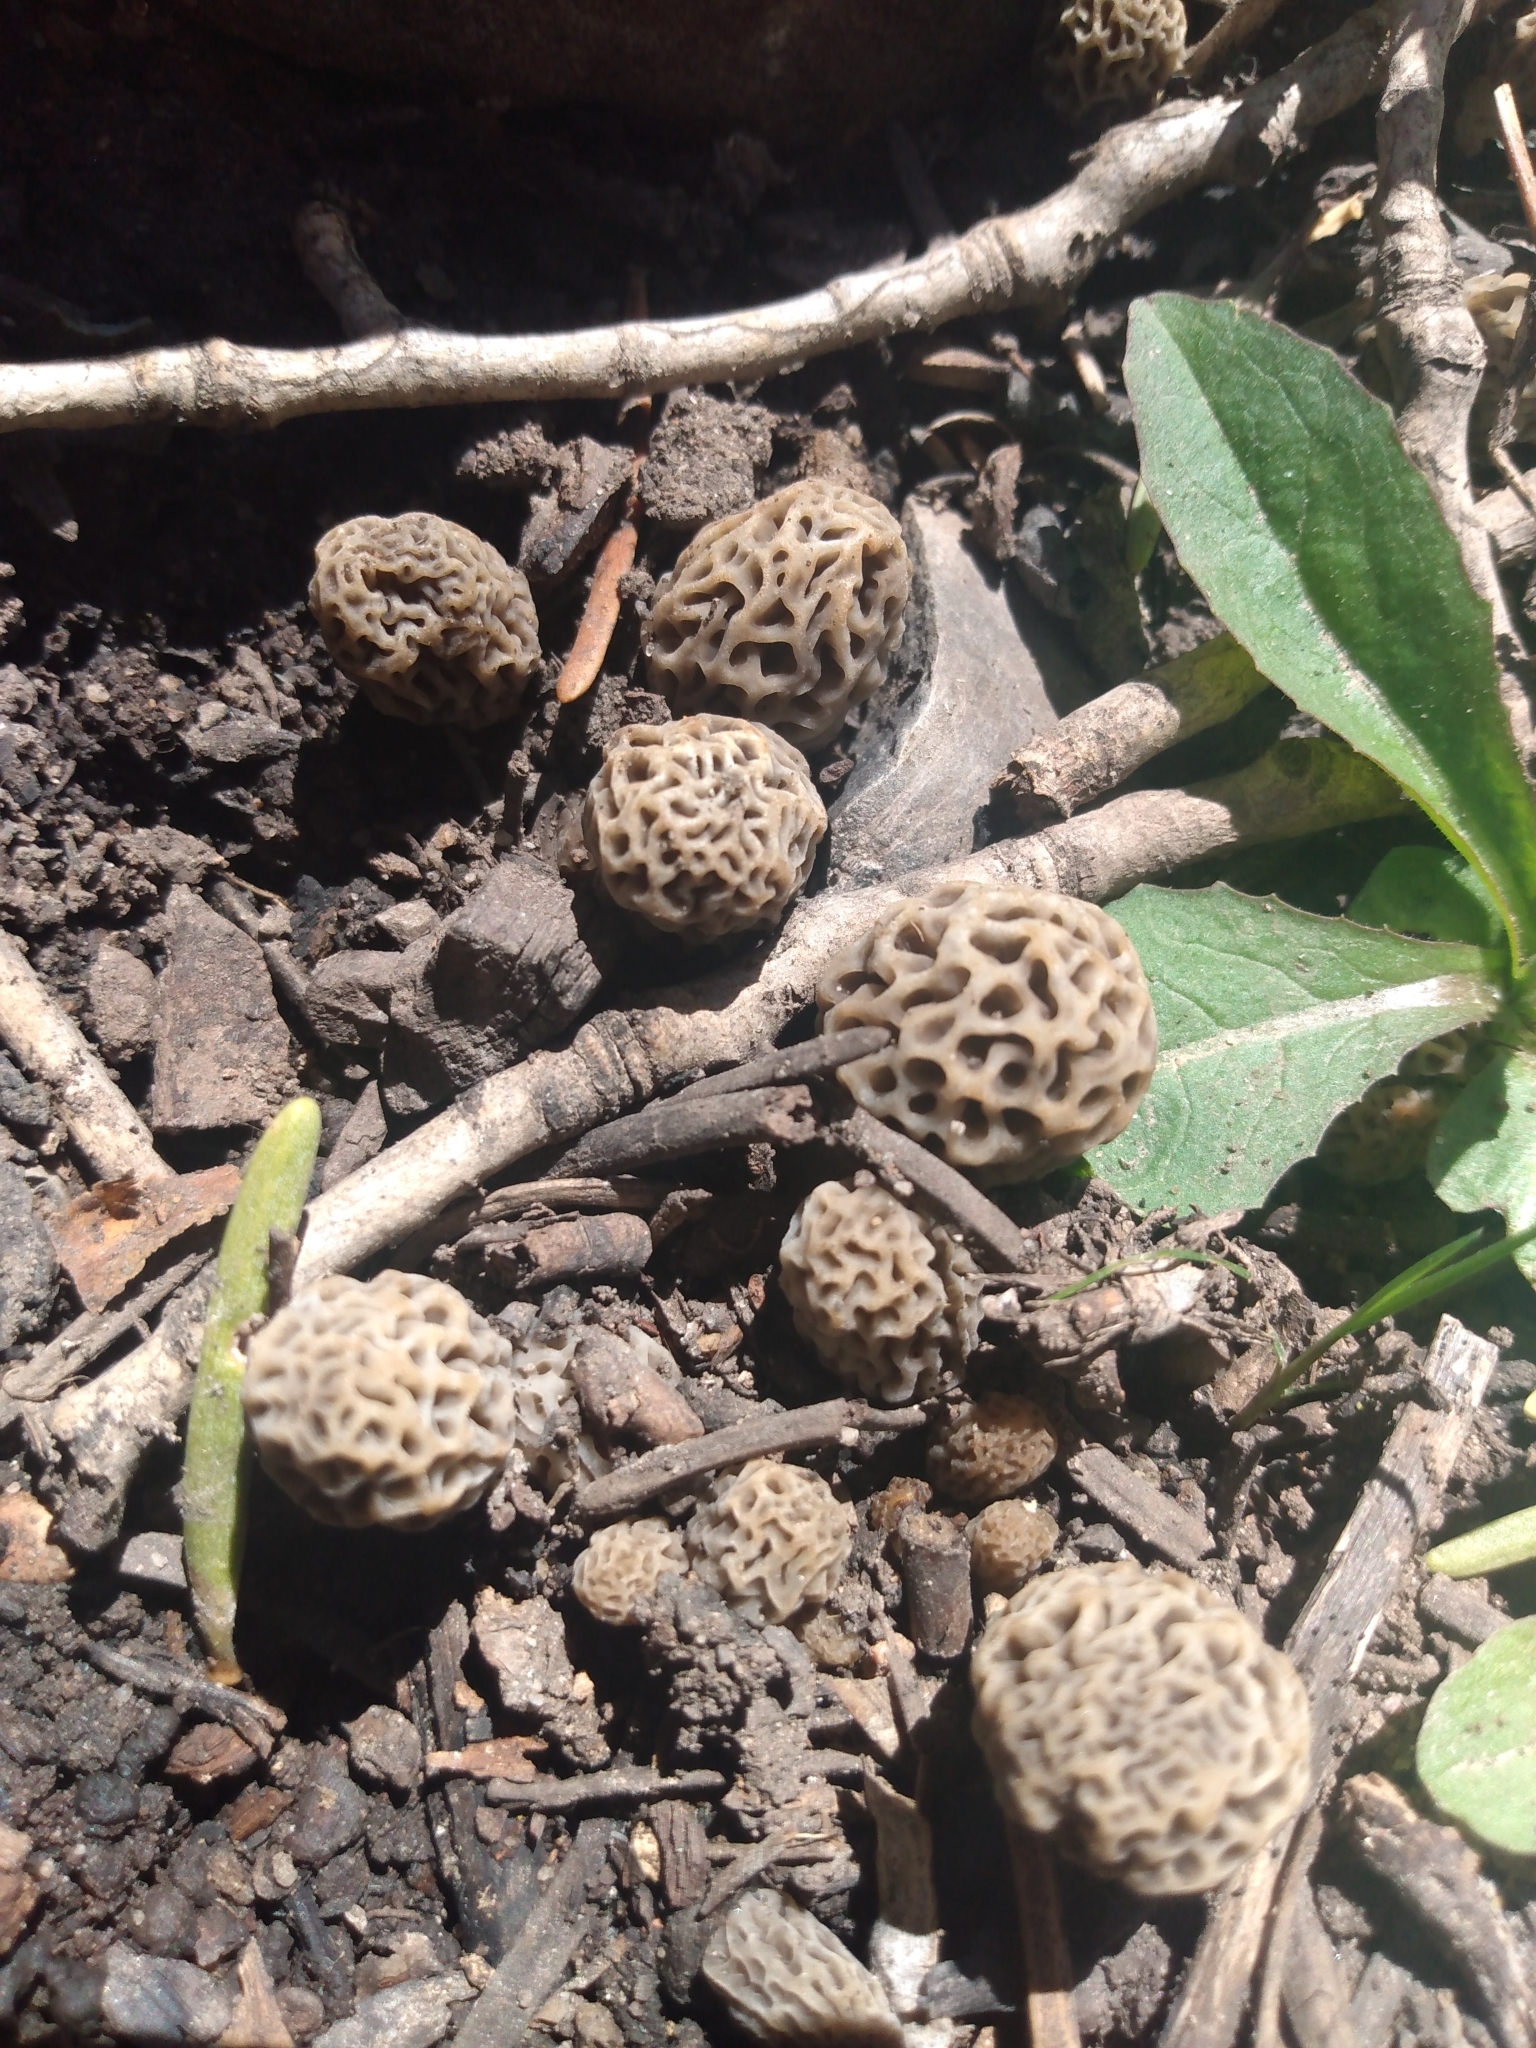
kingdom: Fungi
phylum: Ascomycota
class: Pezizomycetes
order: Pezizales
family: Morchellaceae
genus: Morchella
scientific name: Morchella americana
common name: White morel
